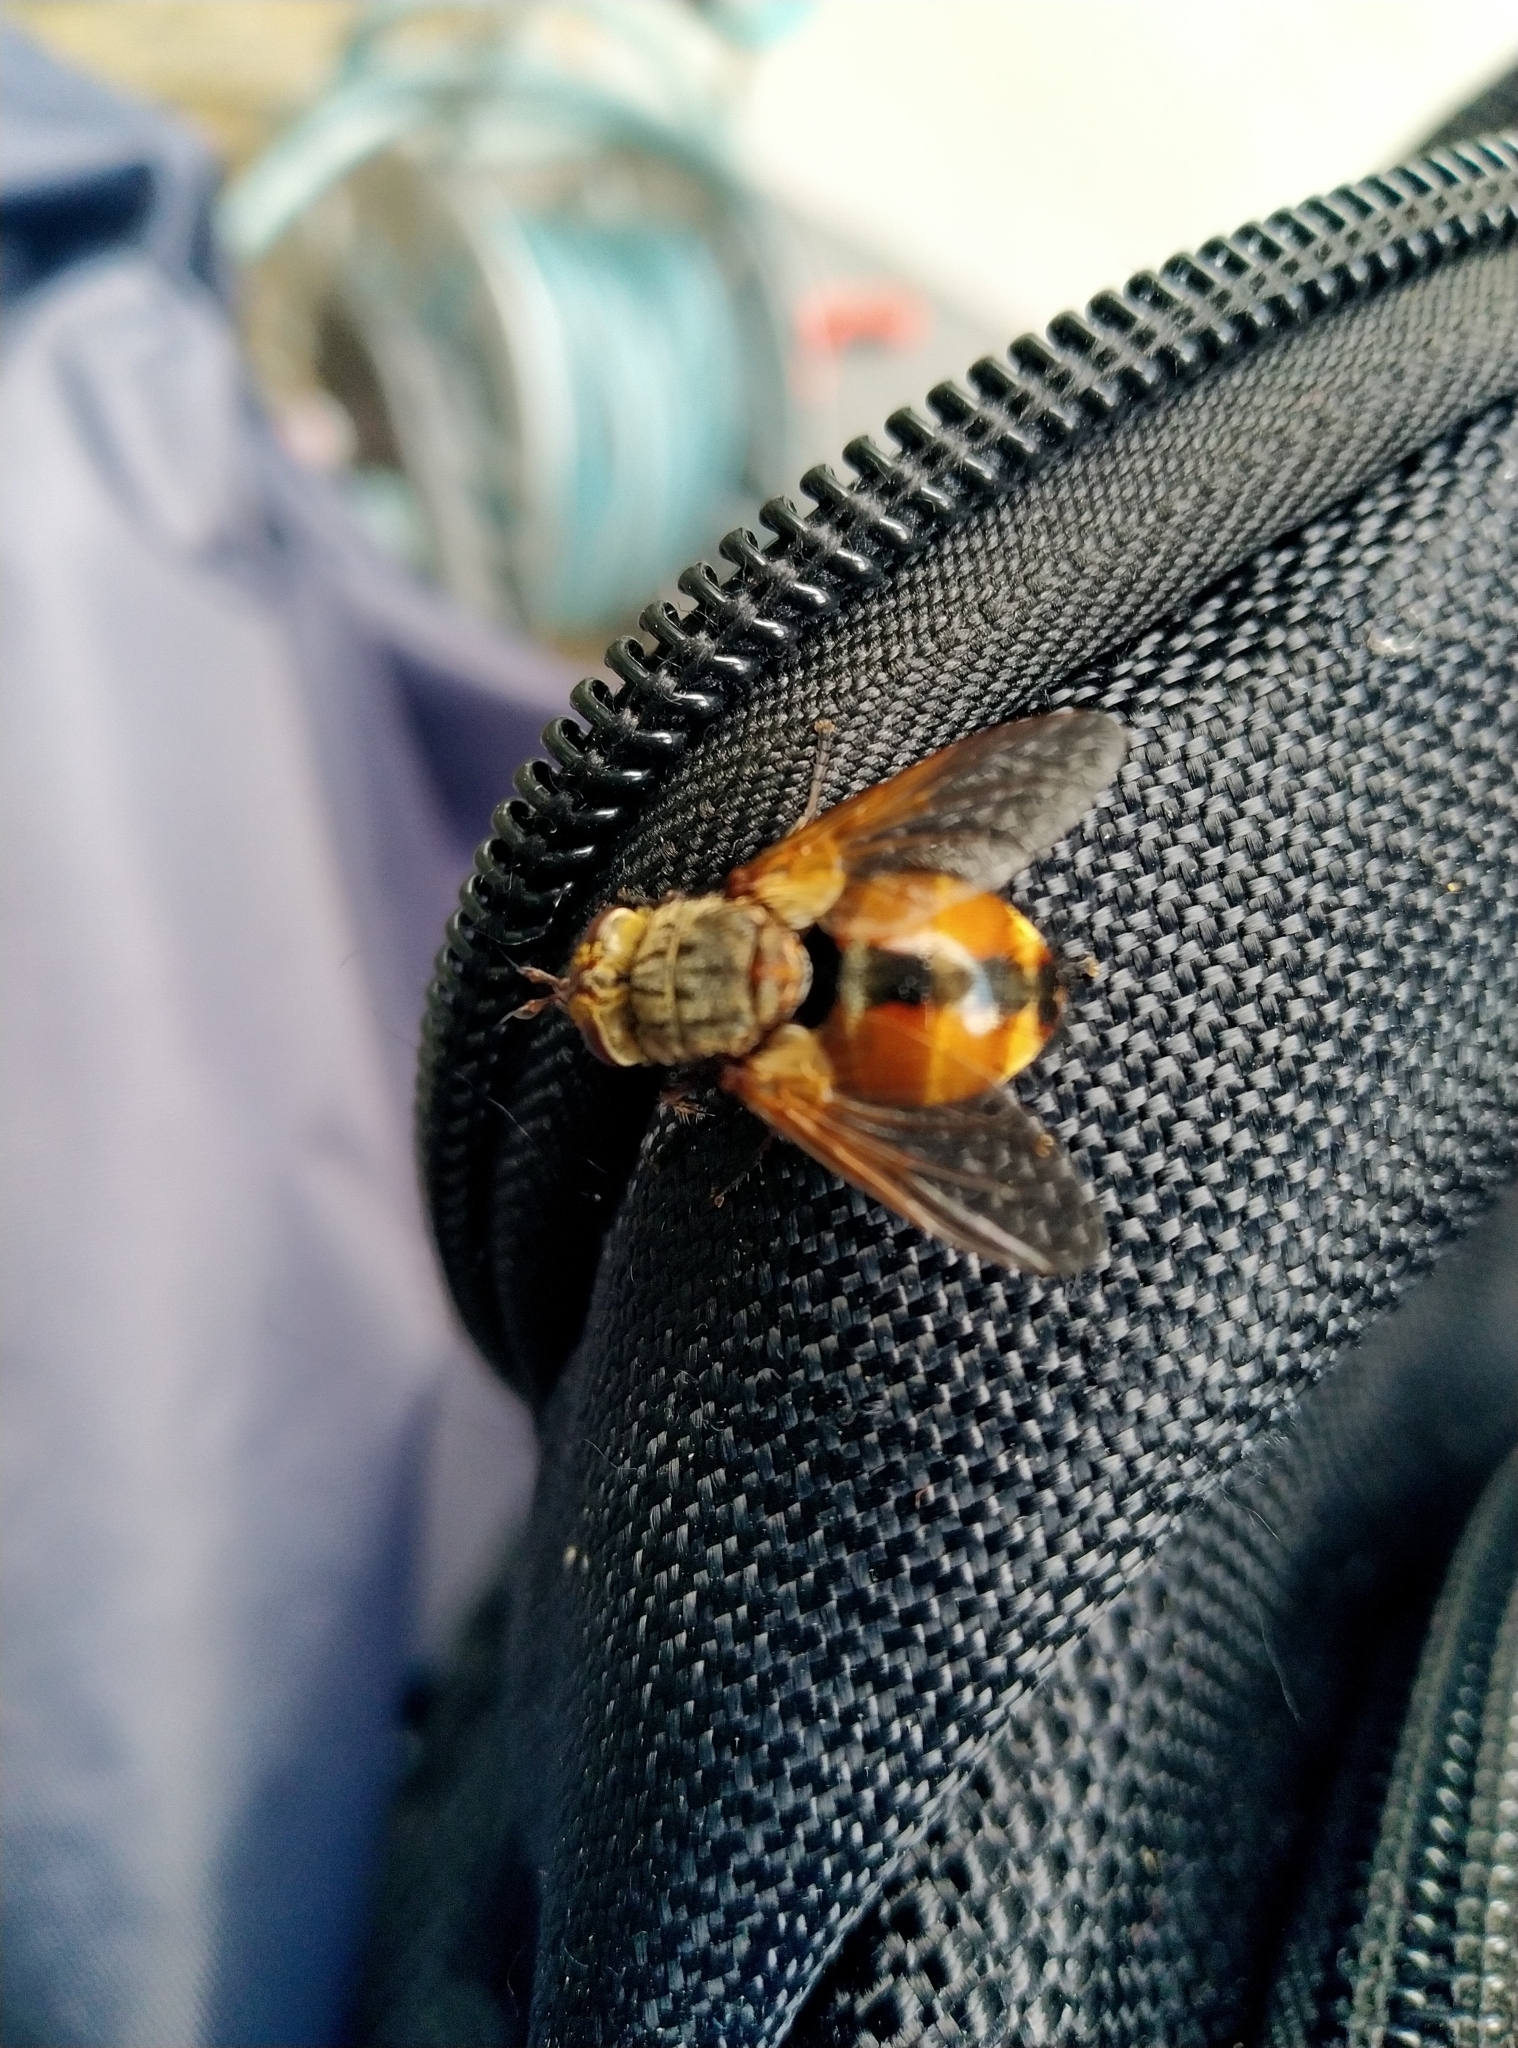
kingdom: Animalia
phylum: Arthropoda
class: Insecta
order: Diptera
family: Tachinidae
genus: Tachina
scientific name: Tachina fera
